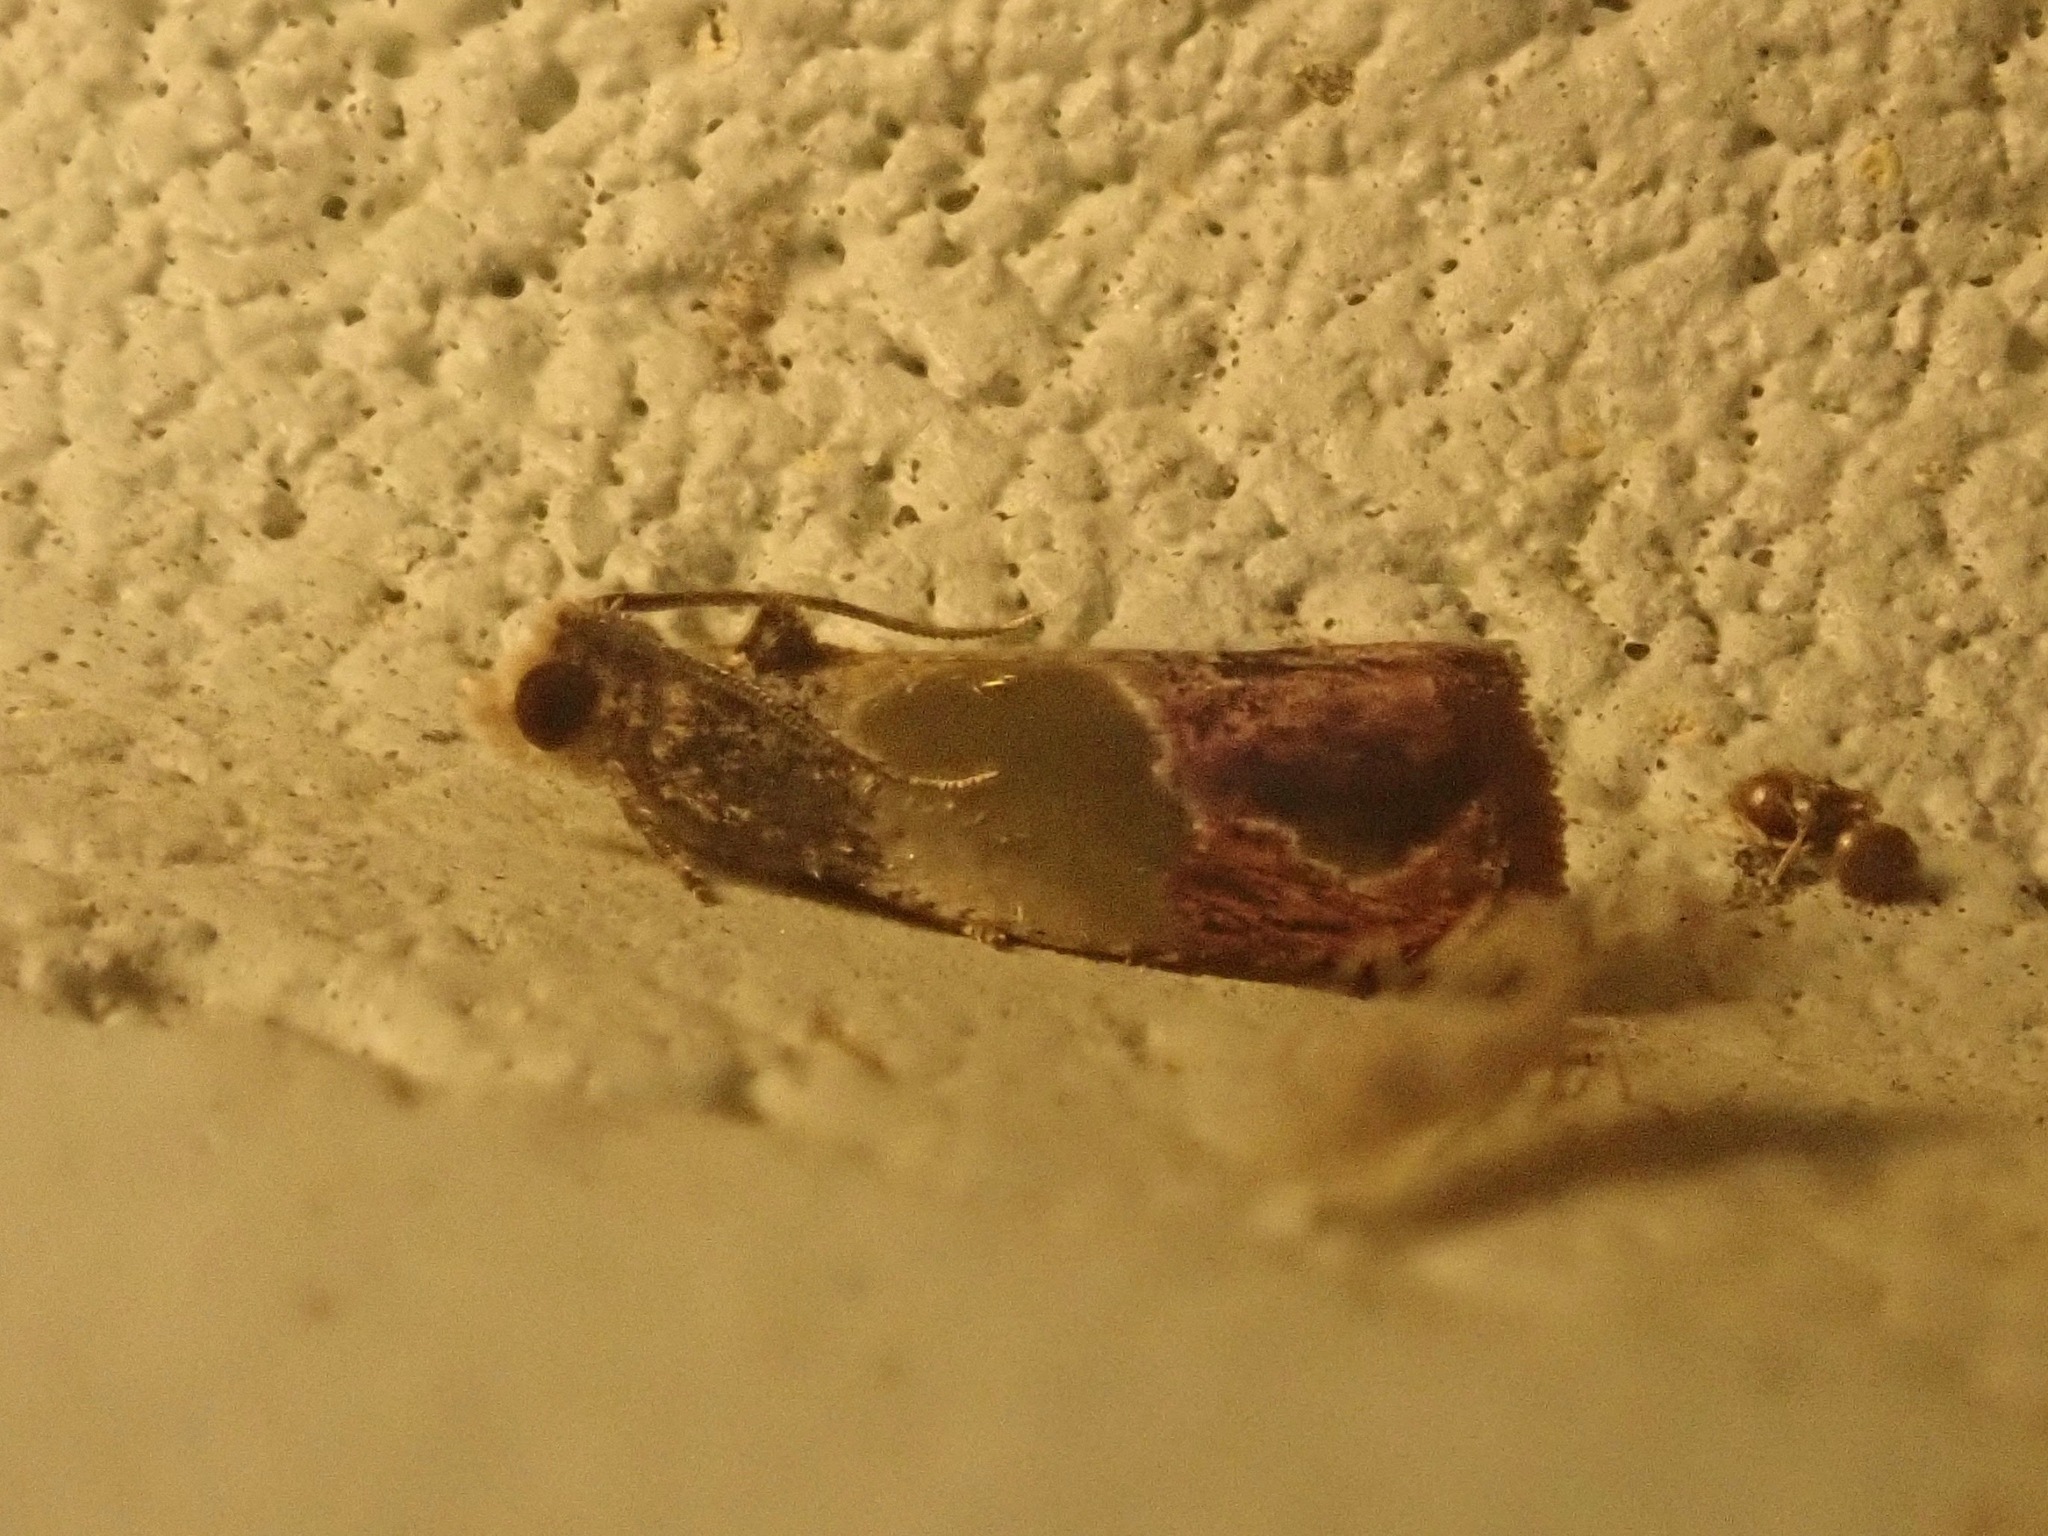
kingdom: Animalia
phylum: Arthropoda
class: Insecta
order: Lepidoptera
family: Tortricidae
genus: Eumarozia
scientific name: Eumarozia malachitana
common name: Sculptured moth
